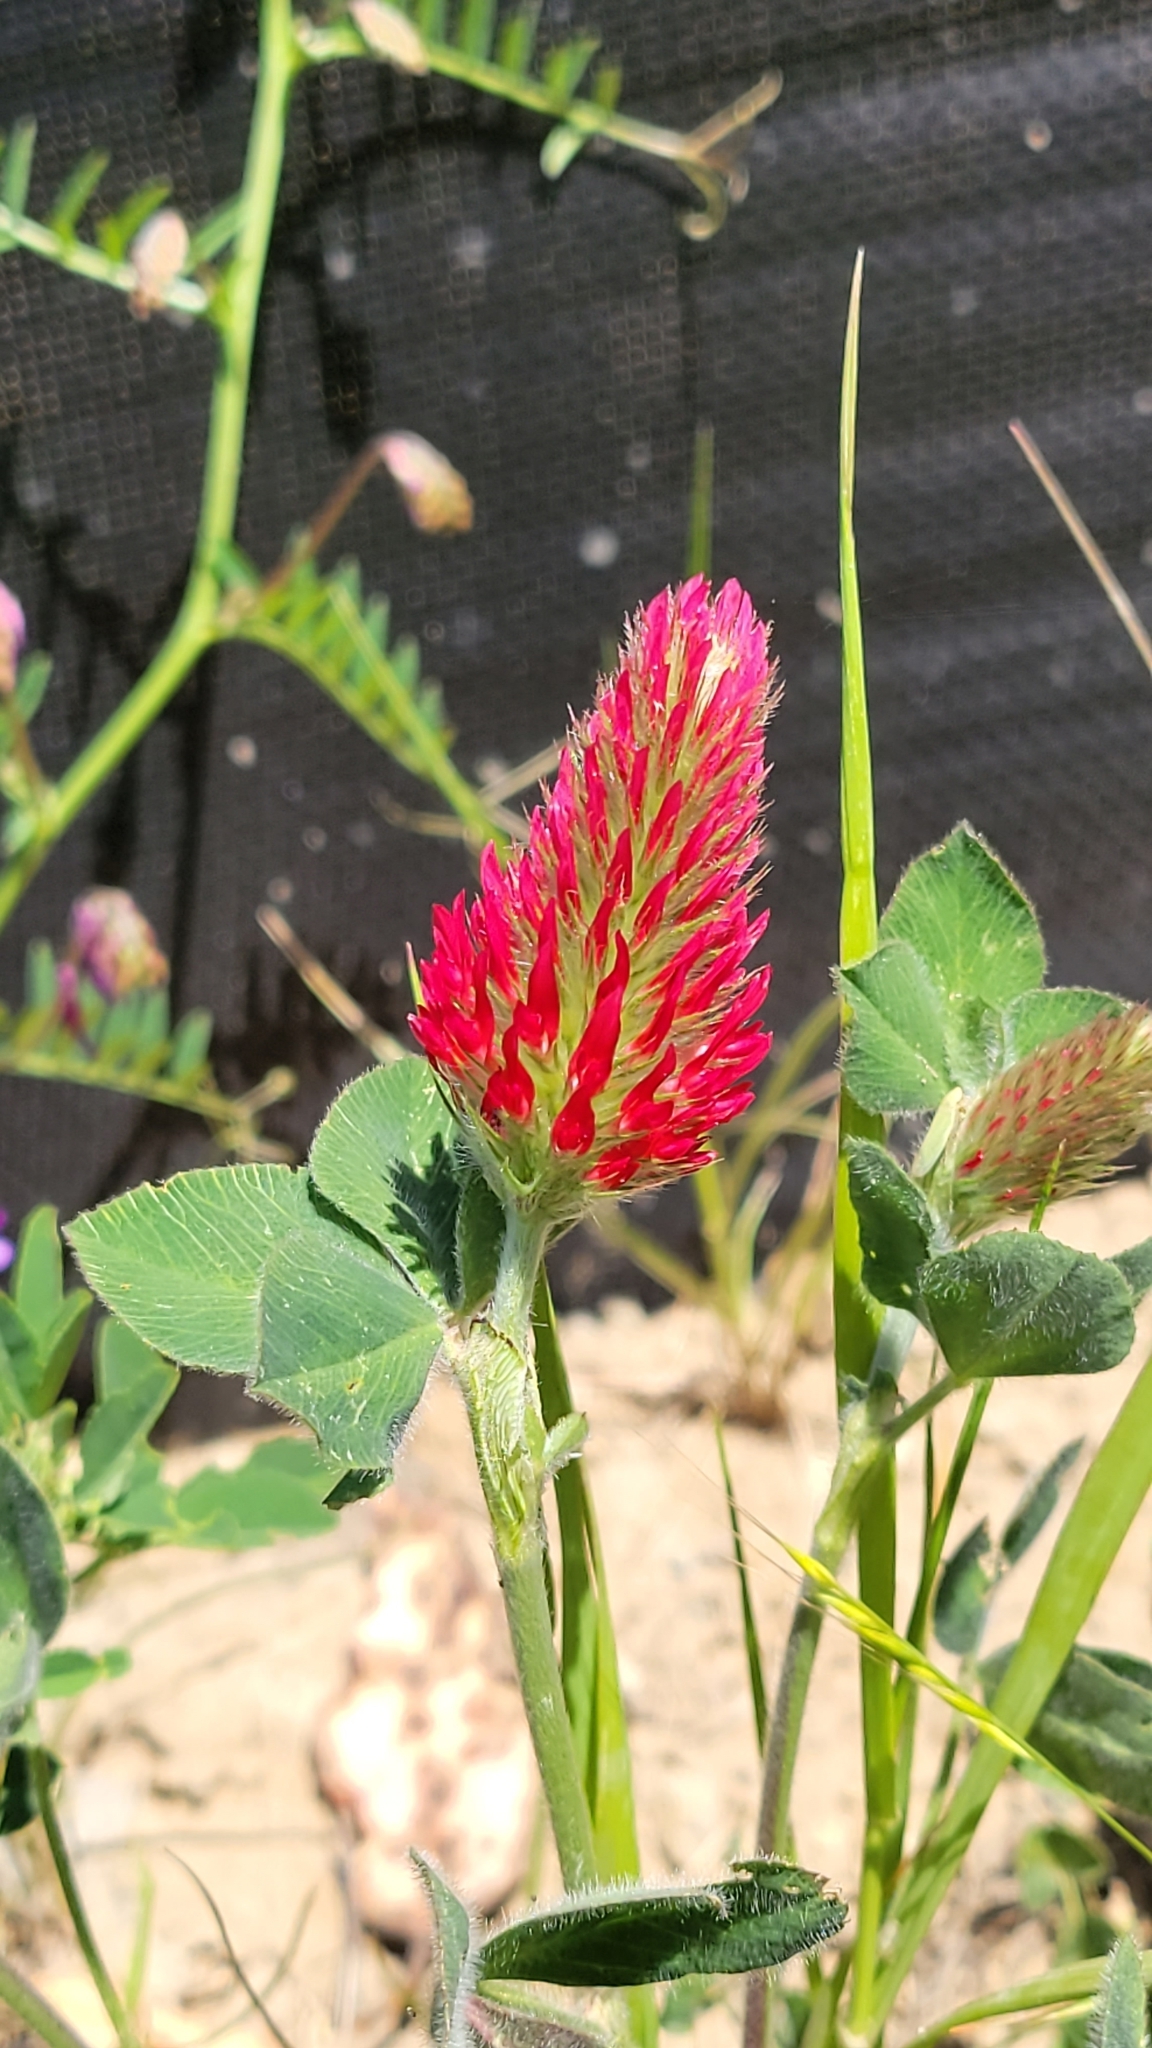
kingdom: Plantae
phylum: Tracheophyta
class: Magnoliopsida
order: Fabales
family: Fabaceae
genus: Trifolium
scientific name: Trifolium incarnatum
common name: Crimson clover
